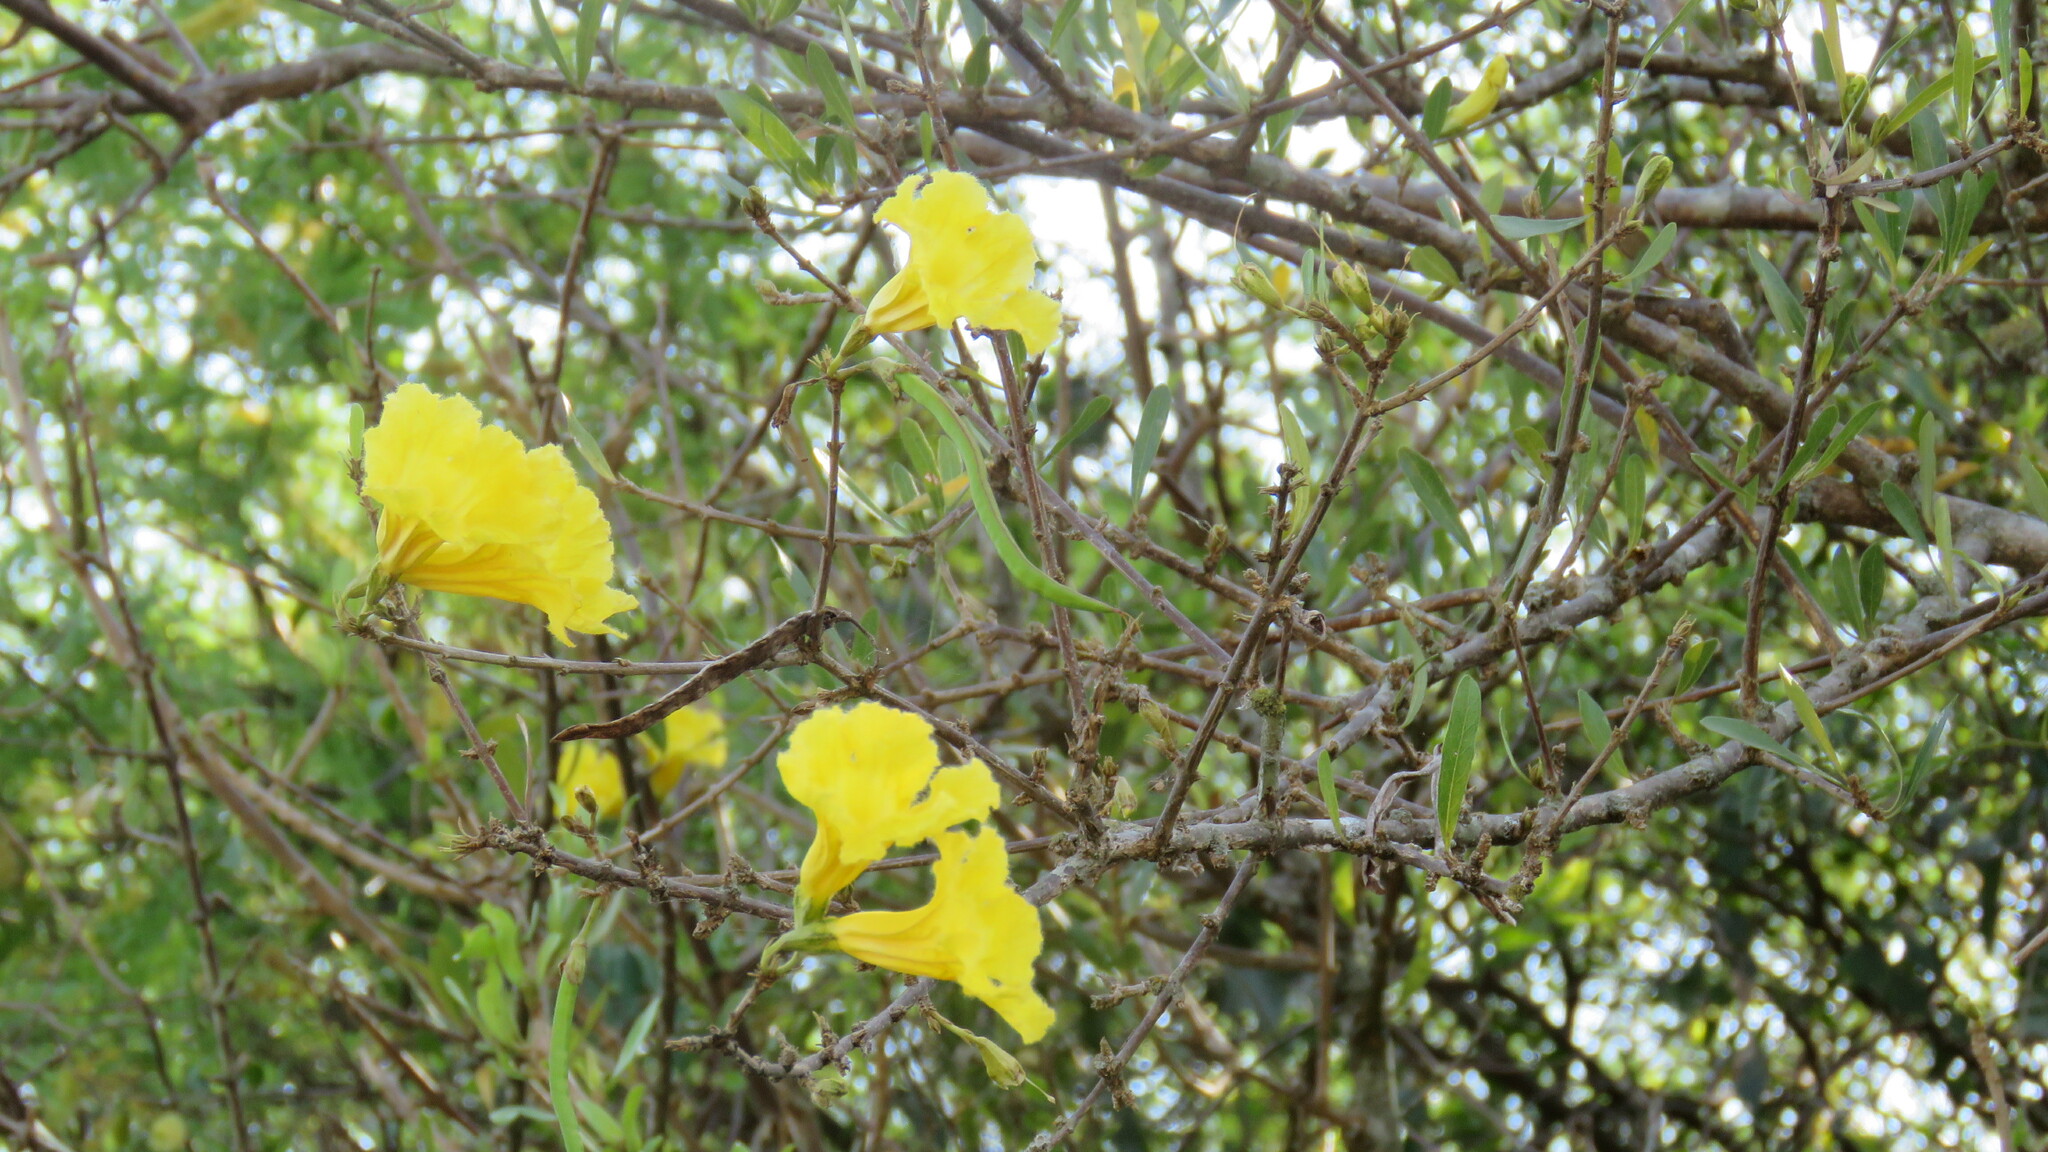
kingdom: Plantae
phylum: Tracheophyta
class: Magnoliopsida
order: Lamiales
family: Bignoniaceae
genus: Tabebuia
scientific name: Tabebuia nodosa
